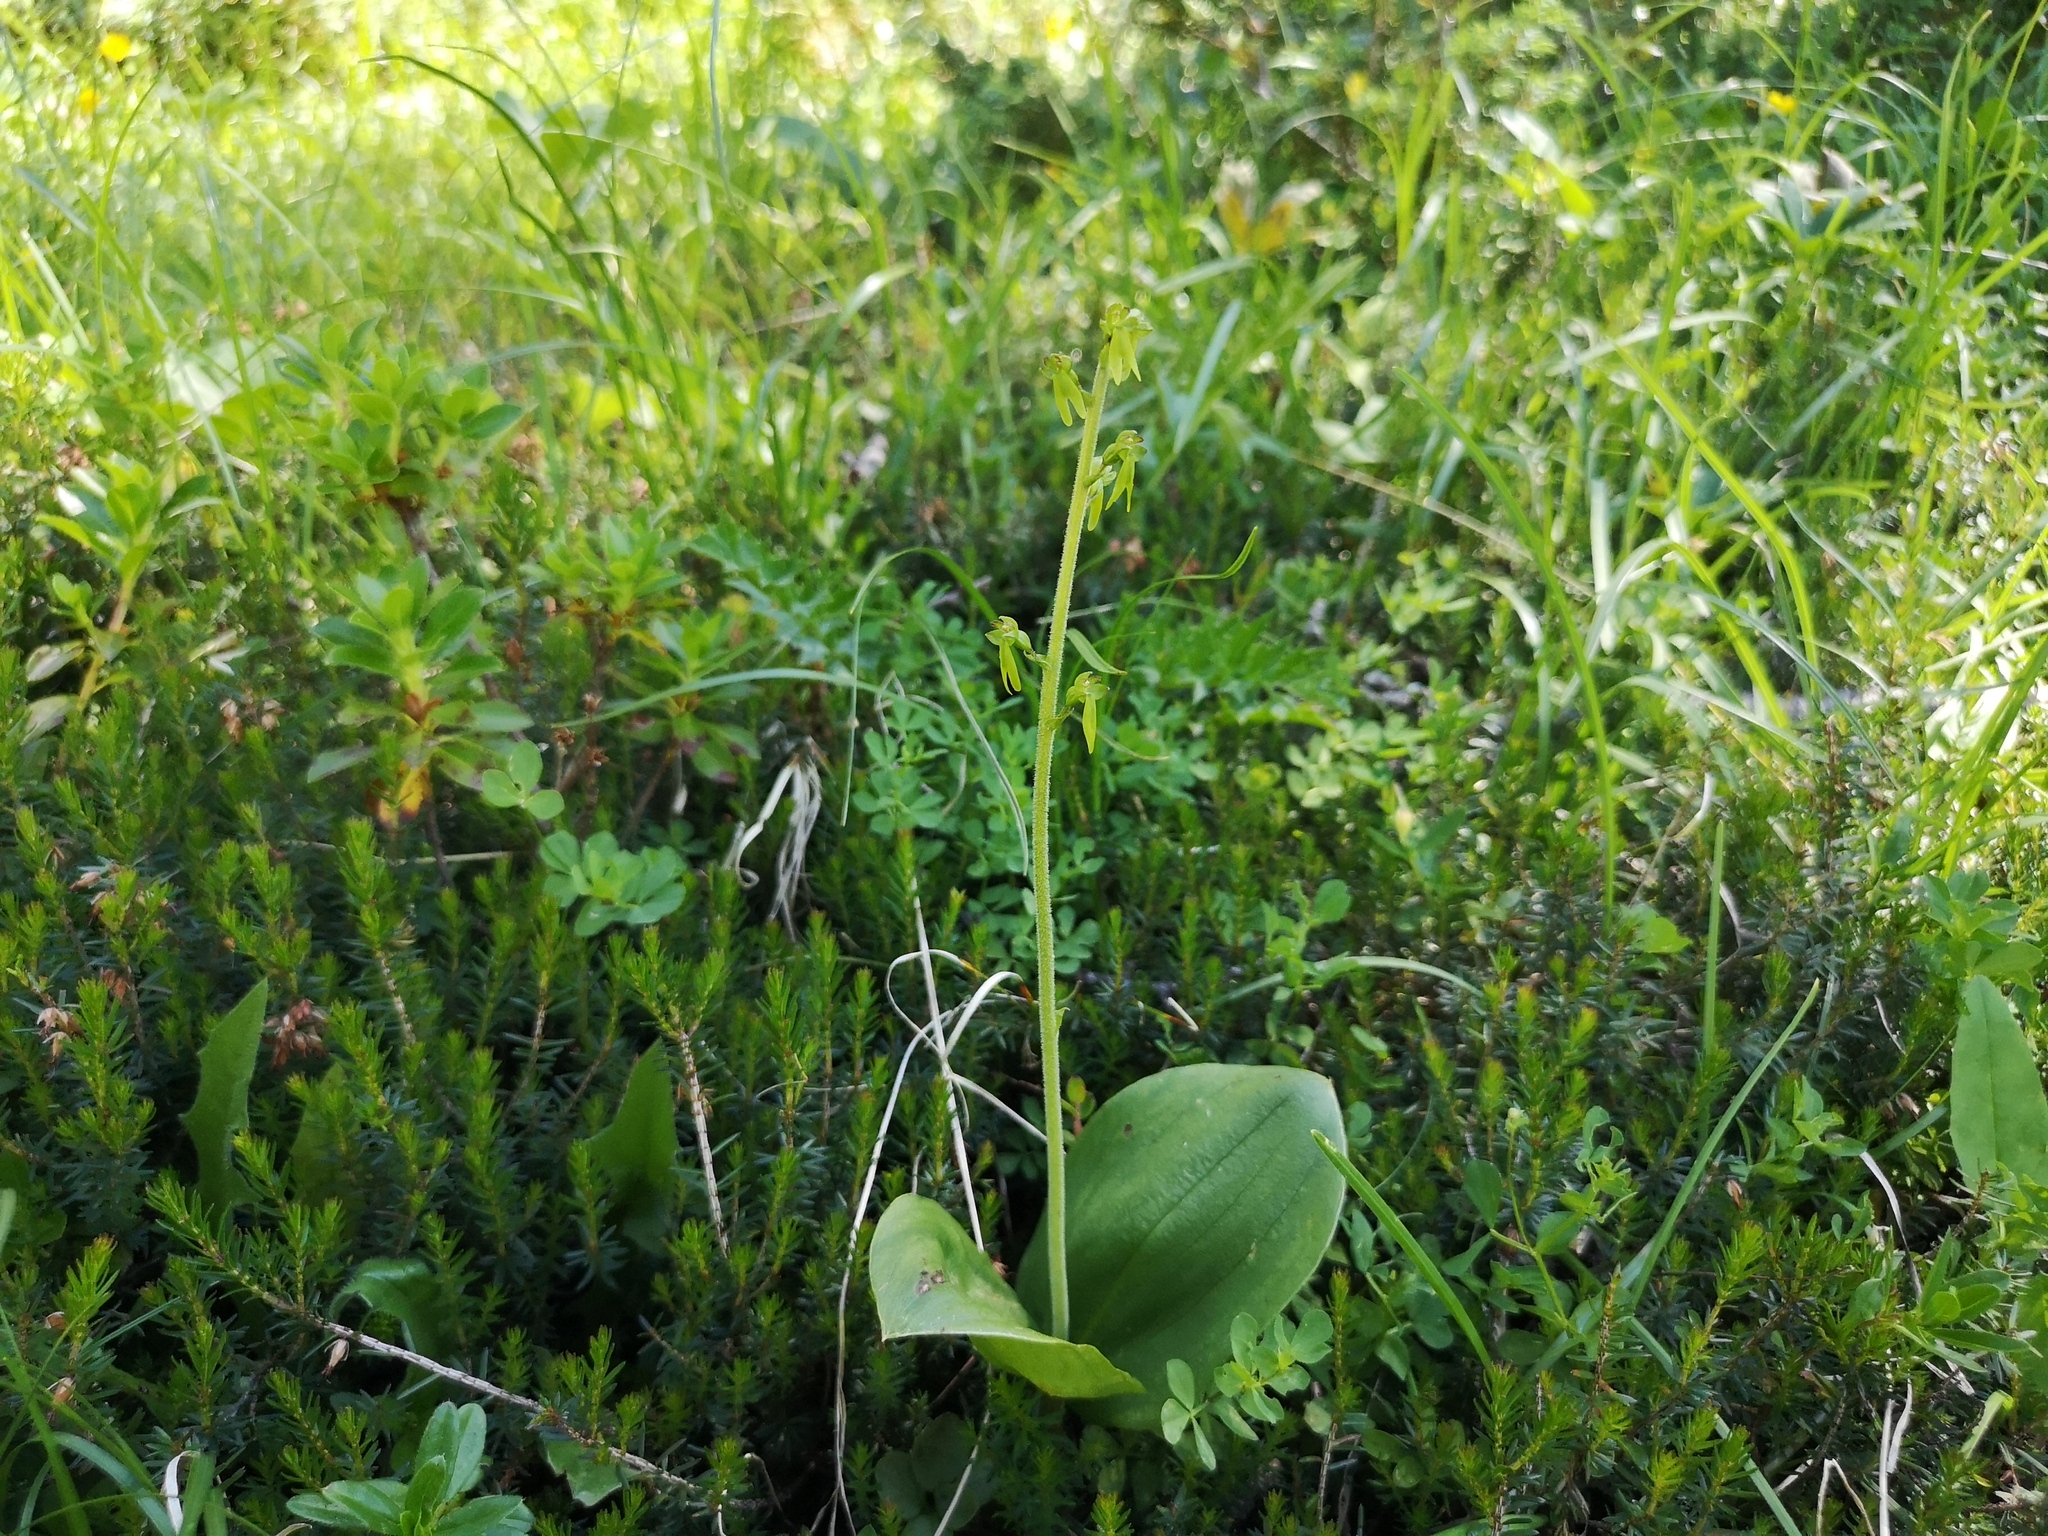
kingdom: Plantae
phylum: Tracheophyta
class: Liliopsida
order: Asparagales
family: Orchidaceae
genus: Neottia
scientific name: Neottia ovata
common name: Common twayblade
